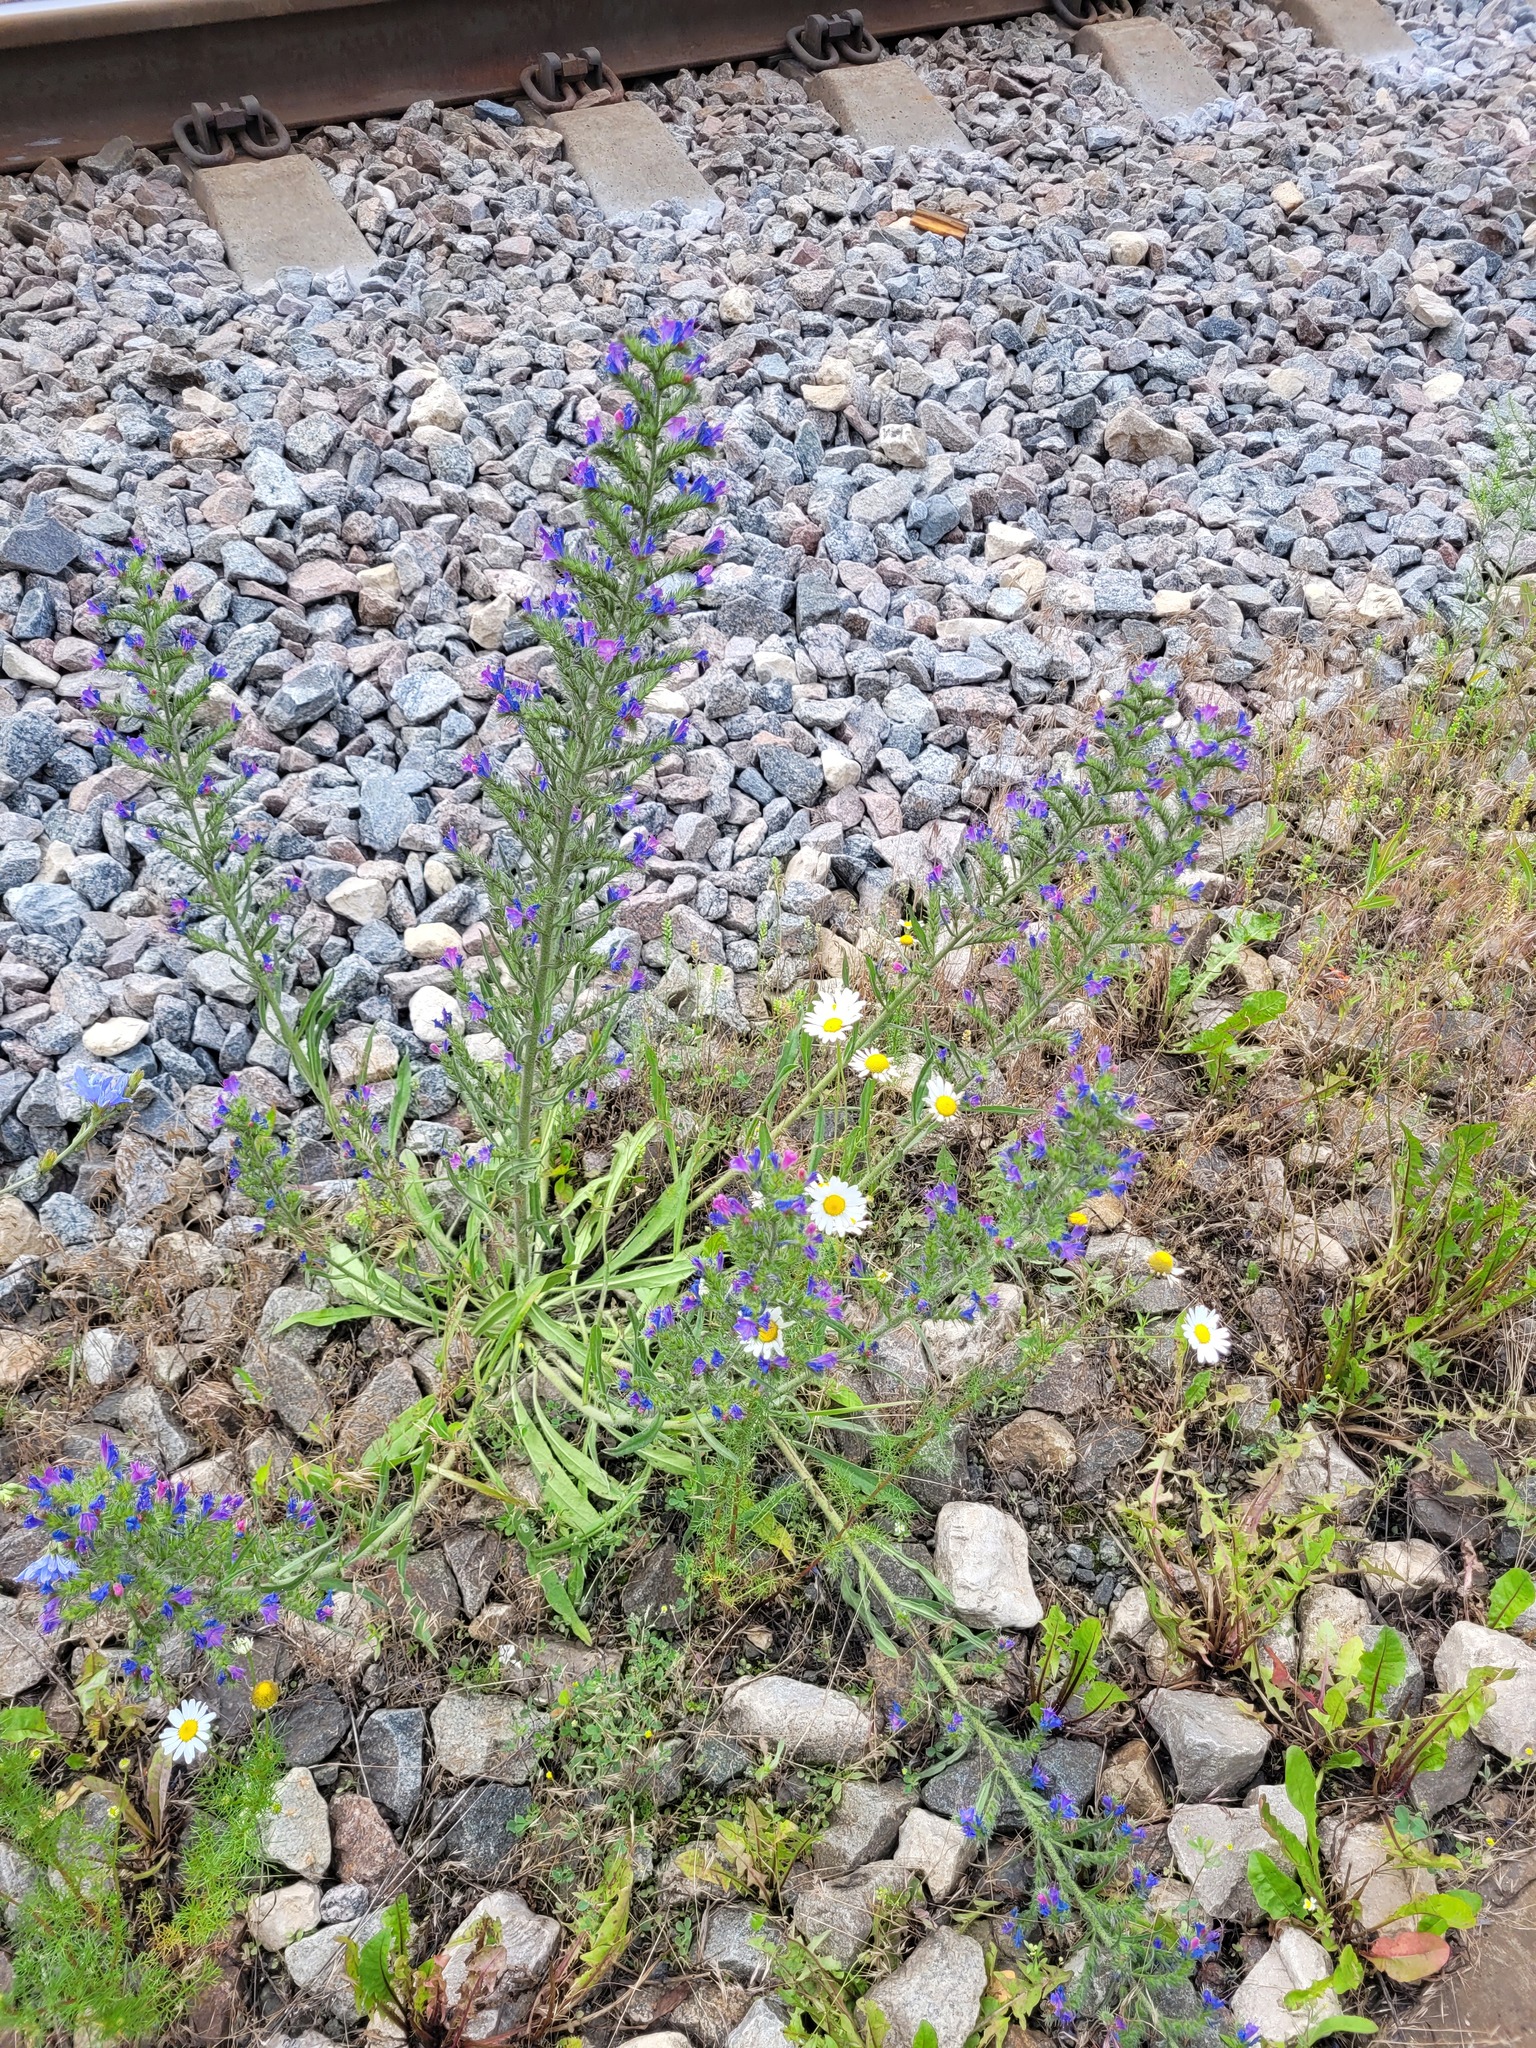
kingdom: Plantae
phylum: Tracheophyta
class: Magnoliopsida
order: Boraginales
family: Boraginaceae
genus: Echium
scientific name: Echium vulgare
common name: Common viper's bugloss
